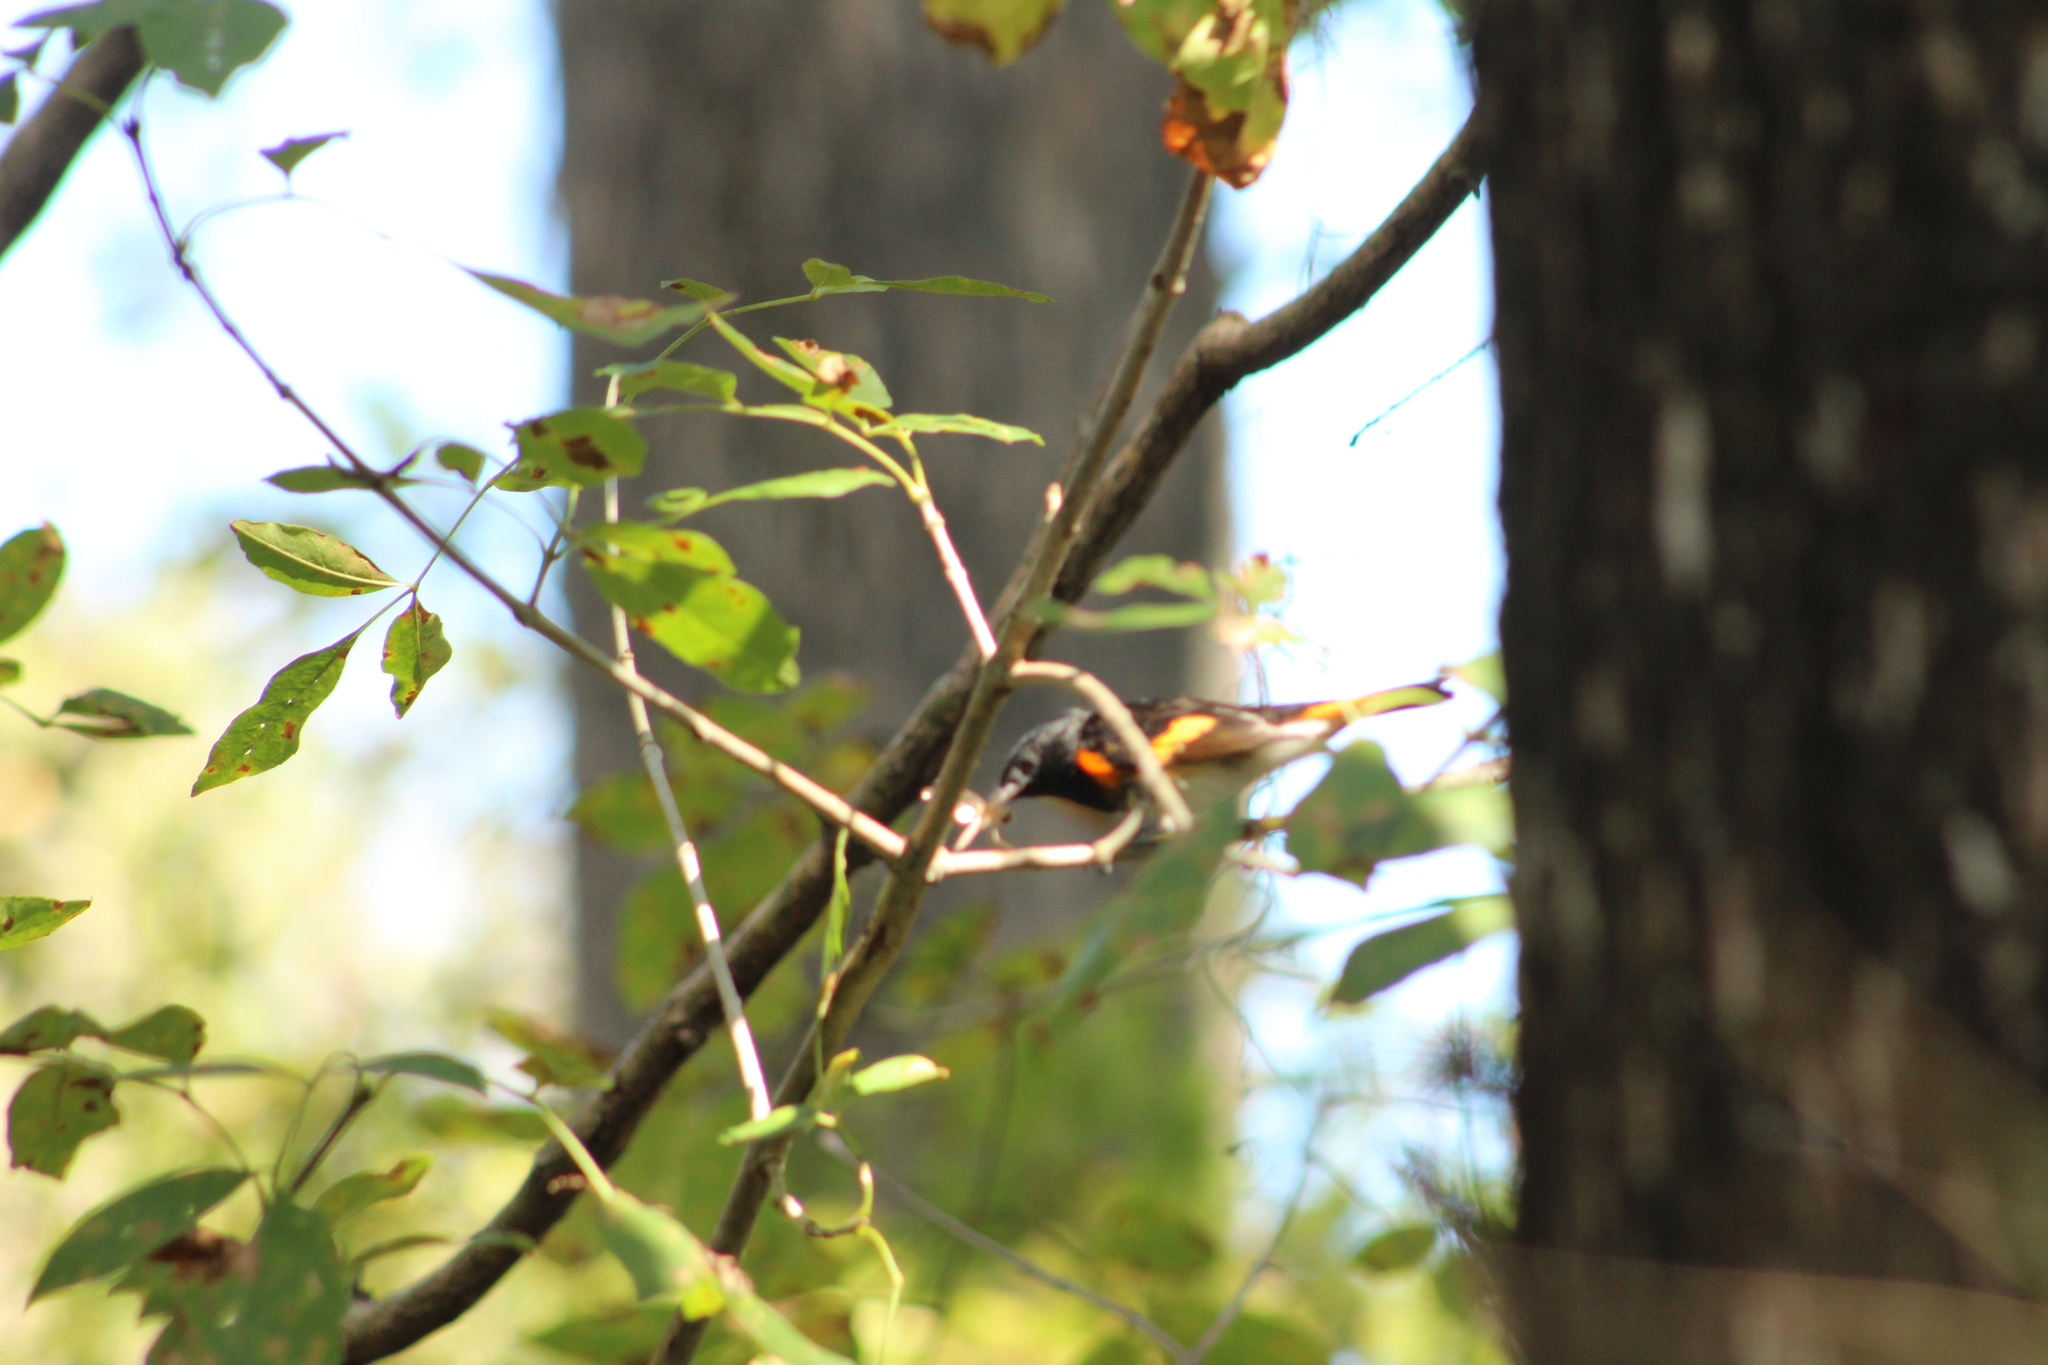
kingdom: Animalia
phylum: Chordata
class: Aves
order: Passeriformes
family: Parulidae
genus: Setophaga
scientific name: Setophaga ruticilla
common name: American redstart
